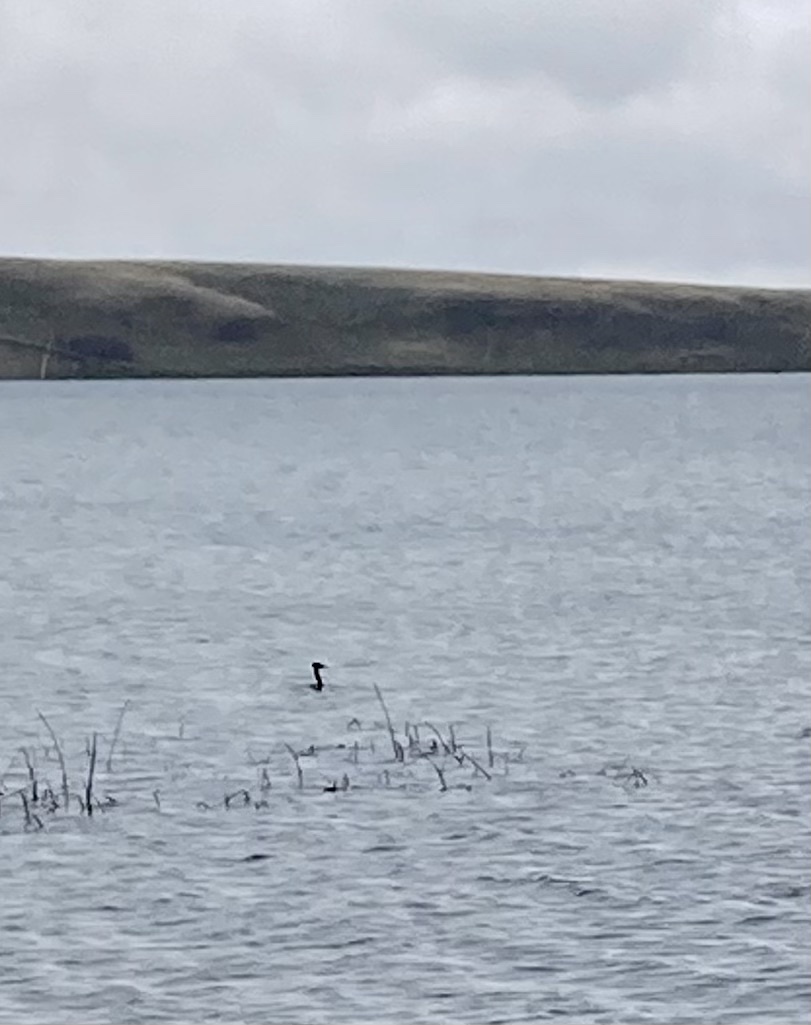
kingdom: Animalia
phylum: Chordata
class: Aves
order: Podicipediformes
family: Podicipedidae
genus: Podiceps
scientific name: Podiceps grisegena
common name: Red-necked grebe
